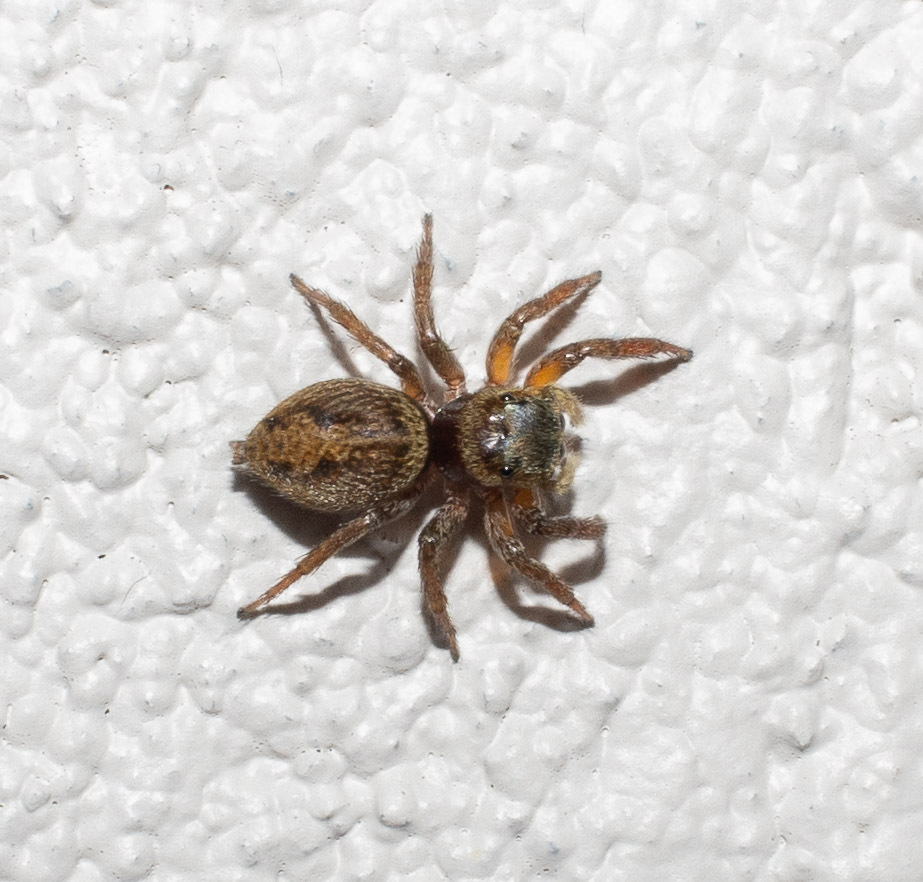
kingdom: Animalia
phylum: Arthropoda
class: Arachnida
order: Araneae
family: Salticidae
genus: Hasarius
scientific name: Hasarius adansoni
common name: Jumping spider
